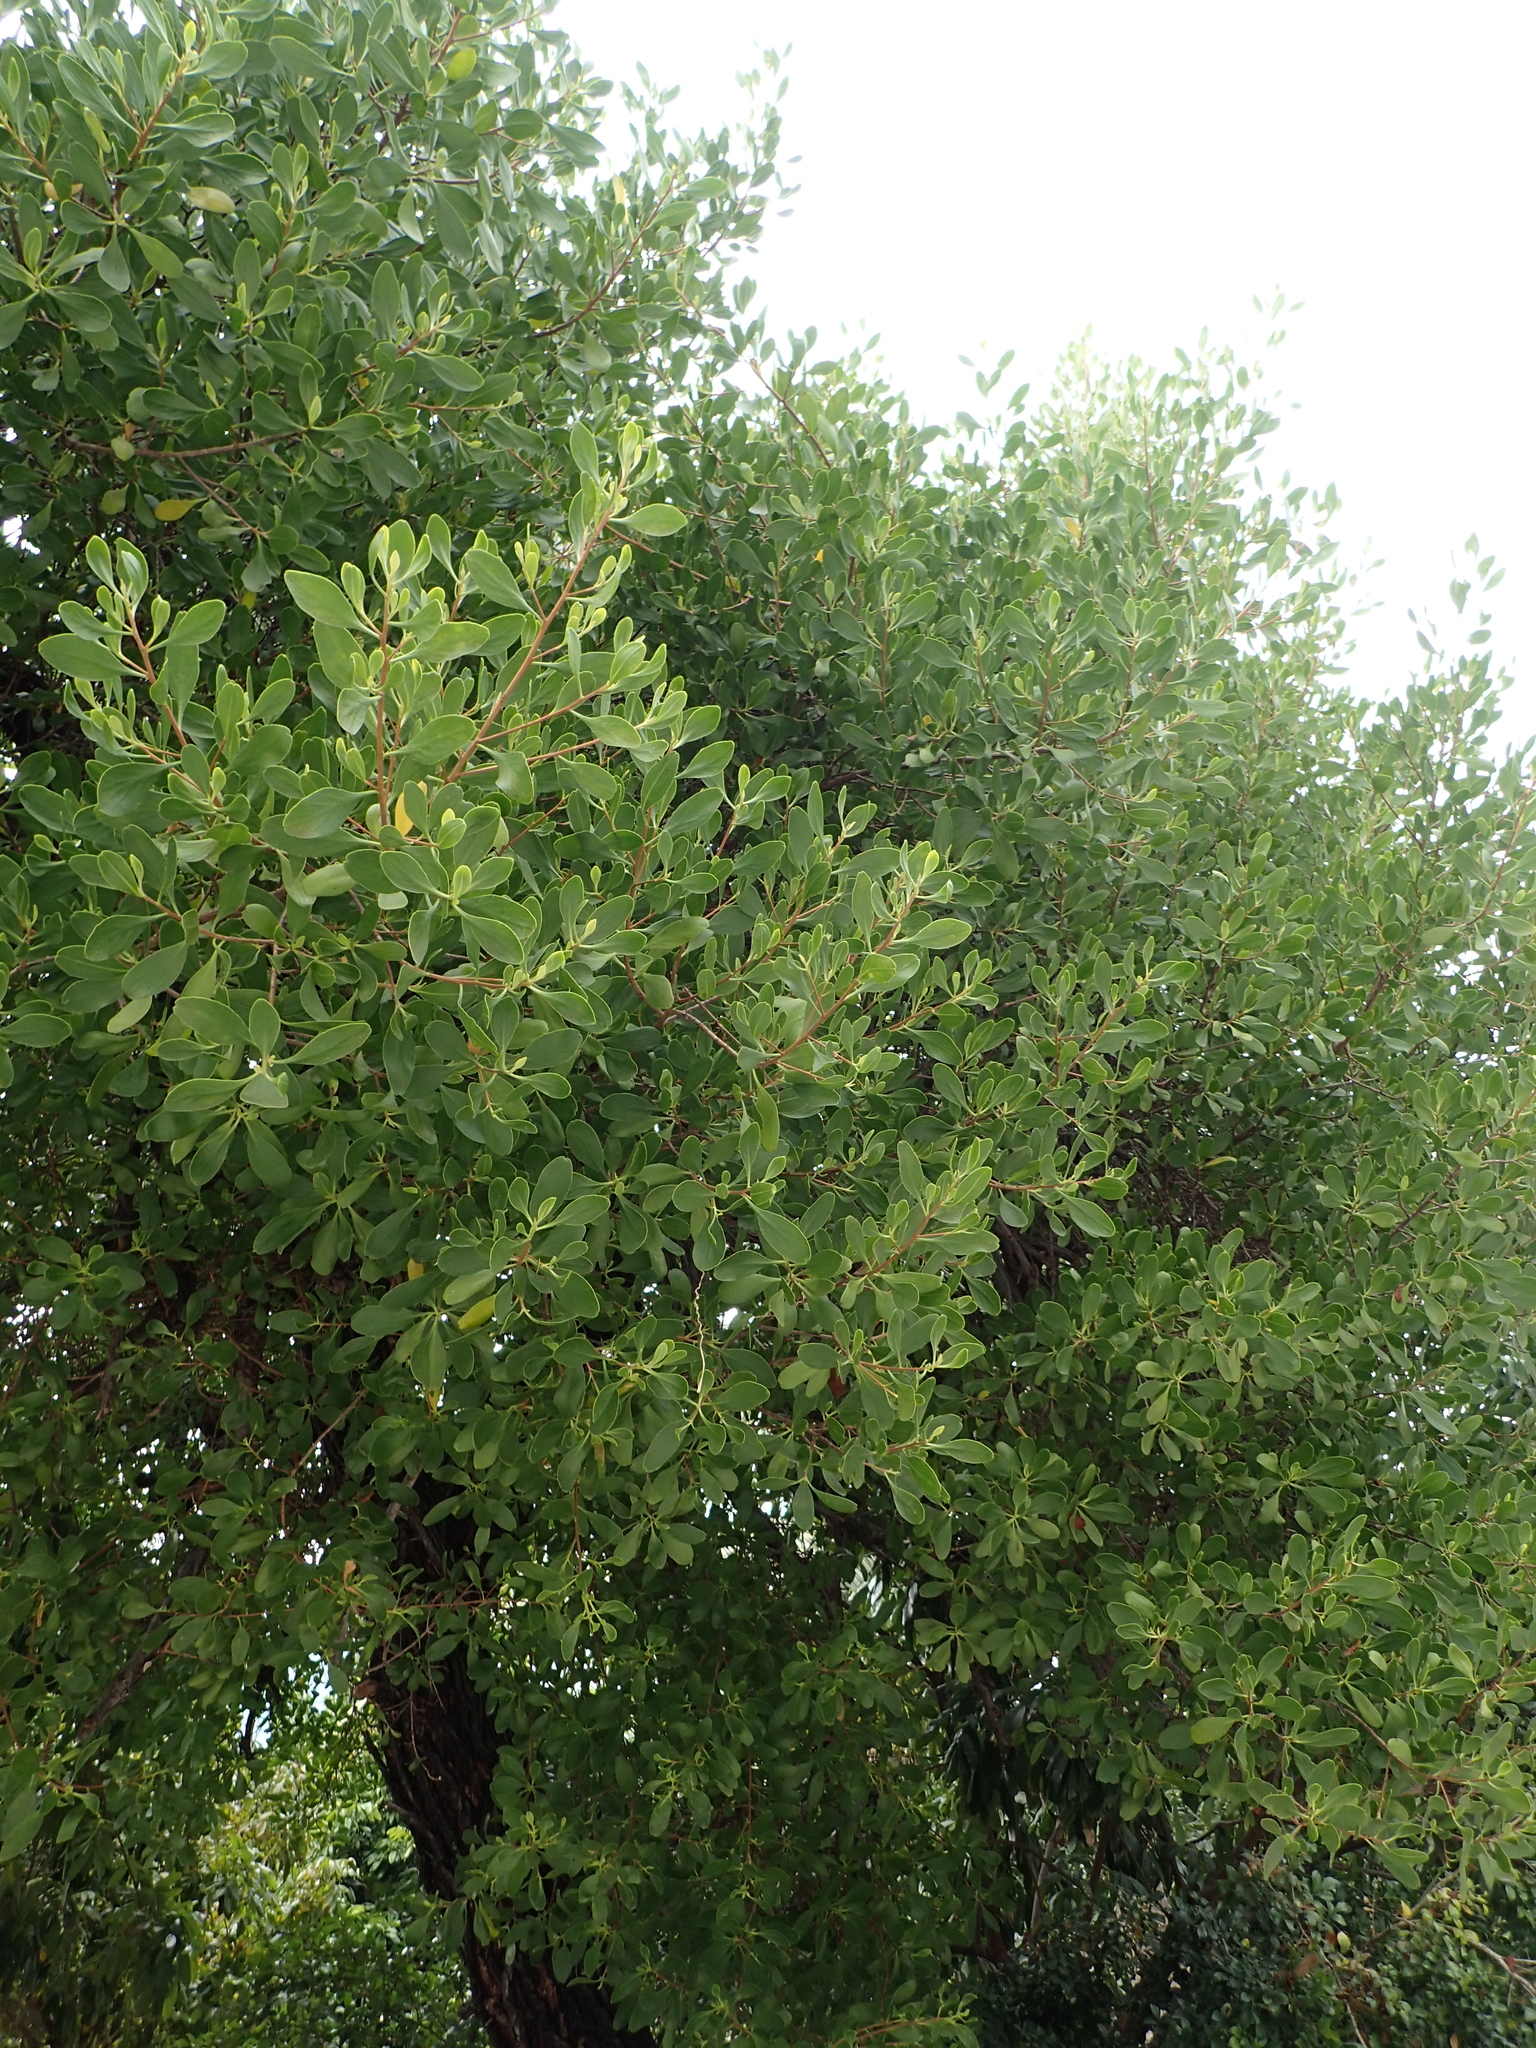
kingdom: Plantae
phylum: Tracheophyta
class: Magnoliopsida
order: Myrtales
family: Combretaceae
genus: Lumnitzera
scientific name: Lumnitzera racemosa
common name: White-flowered black mangrove
